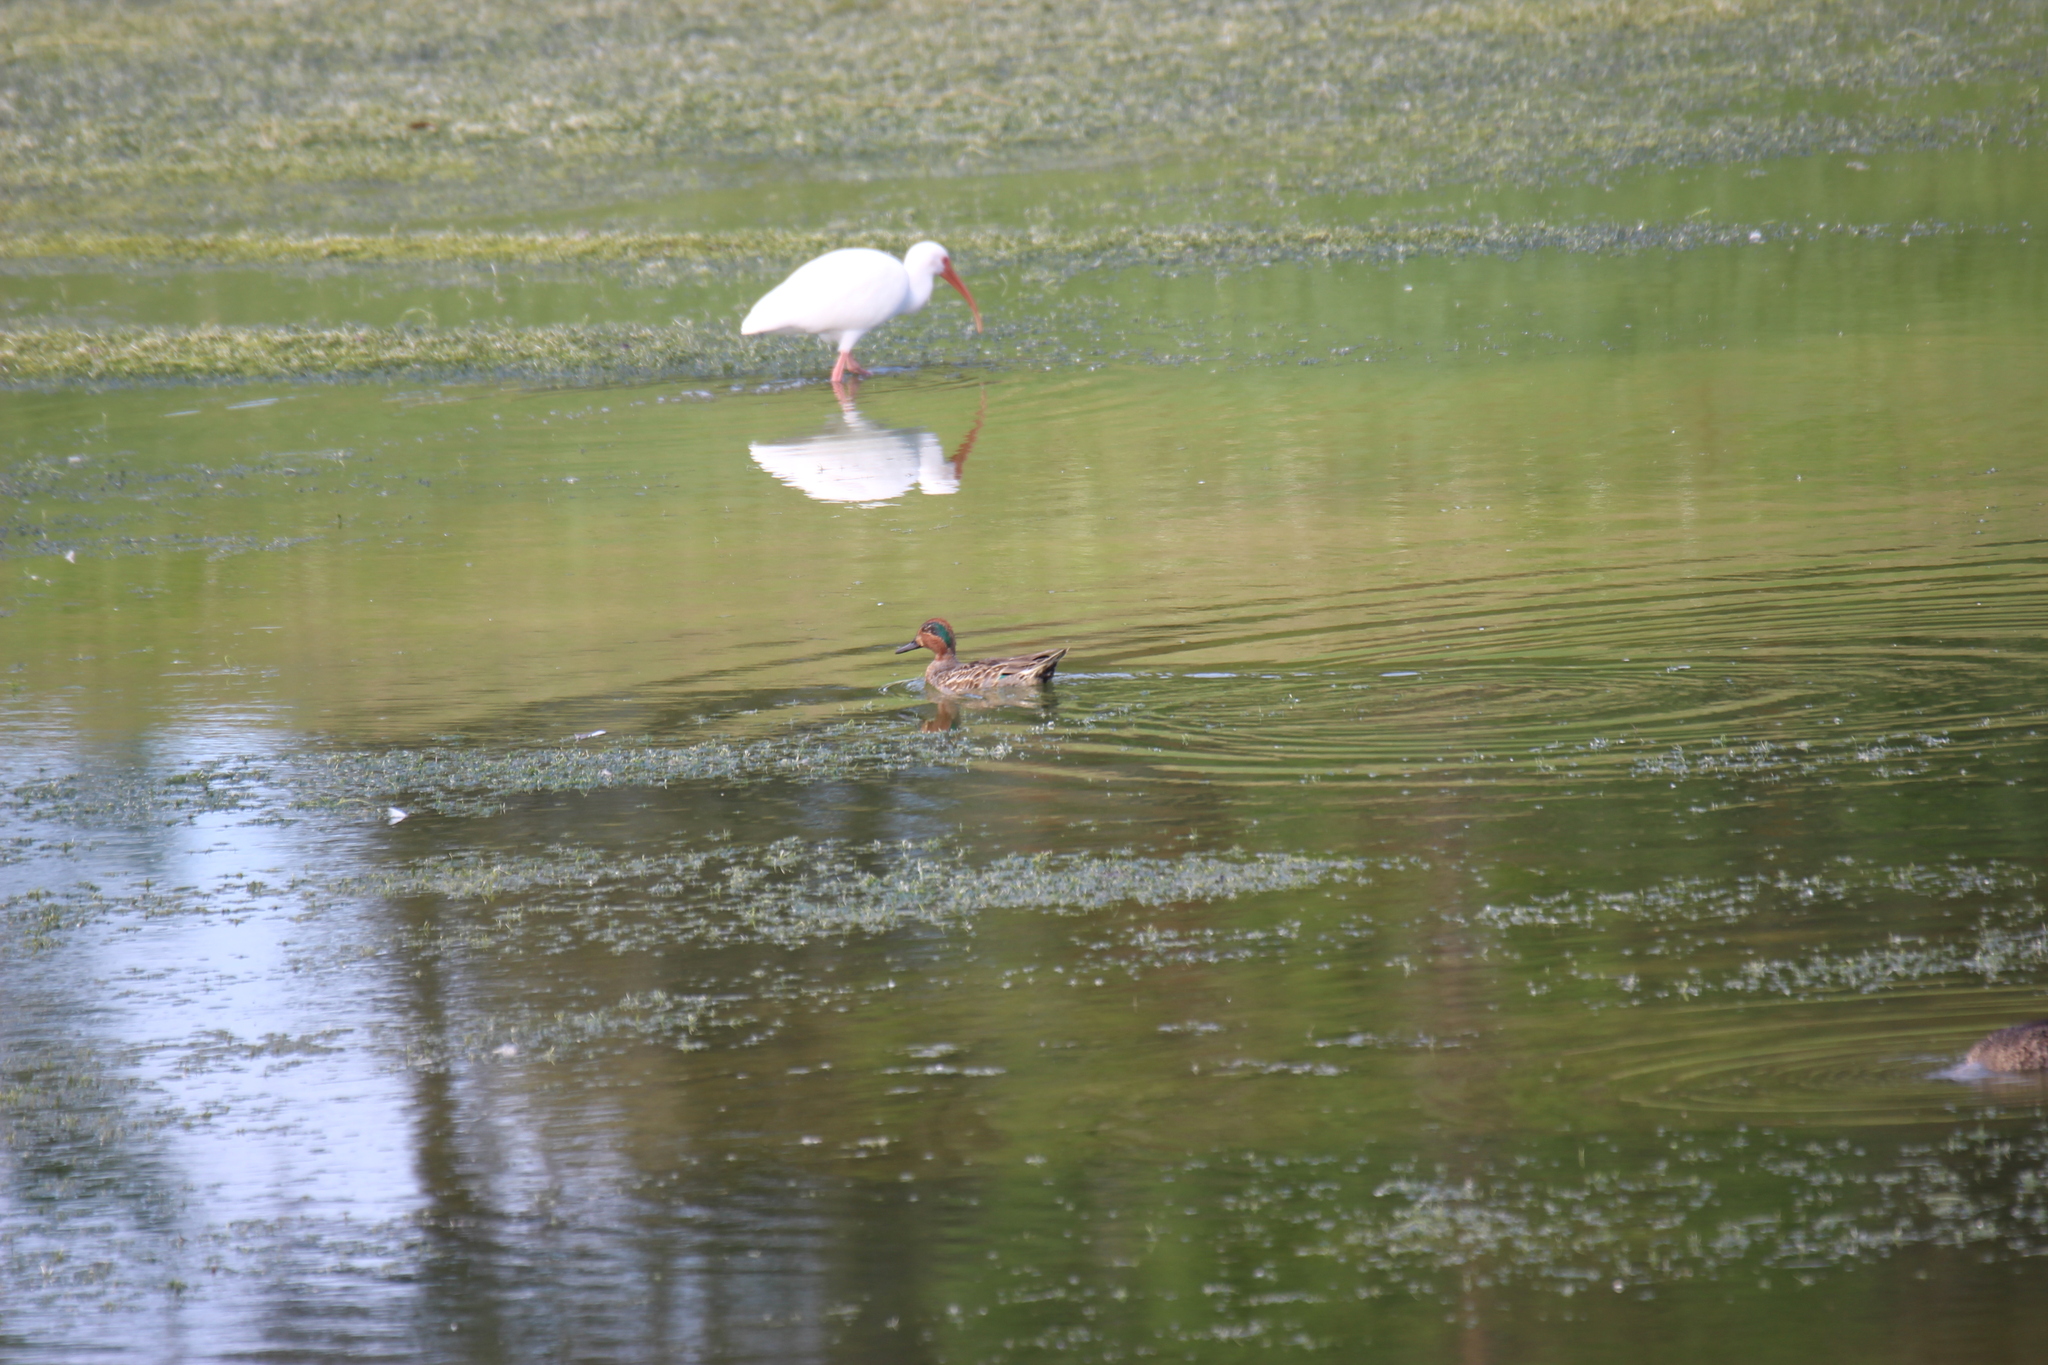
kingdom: Animalia
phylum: Chordata
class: Aves
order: Anseriformes
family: Anatidae
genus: Anas
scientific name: Anas crecca
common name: Eurasian teal
